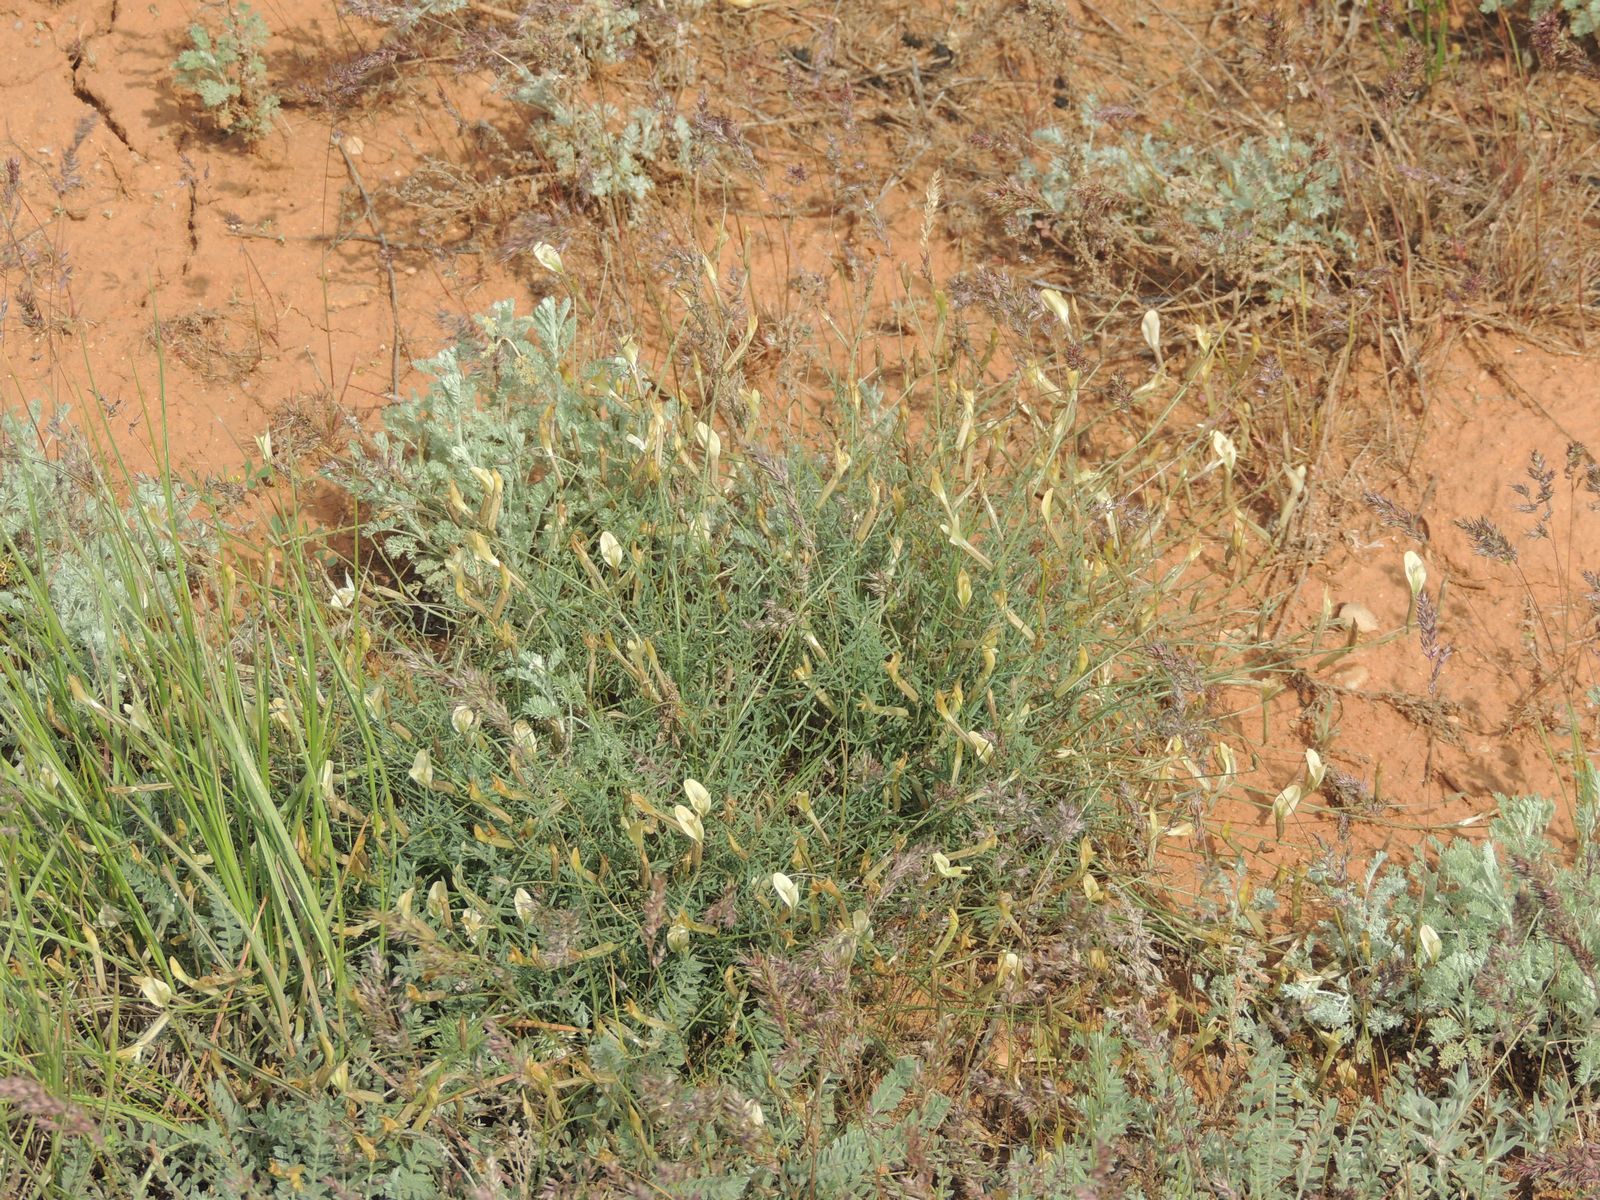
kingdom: Plantae
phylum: Tracheophyta
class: Magnoliopsida
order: Fabales
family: Fabaceae
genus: Astragalus
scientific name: Astragalus ucrainicus
